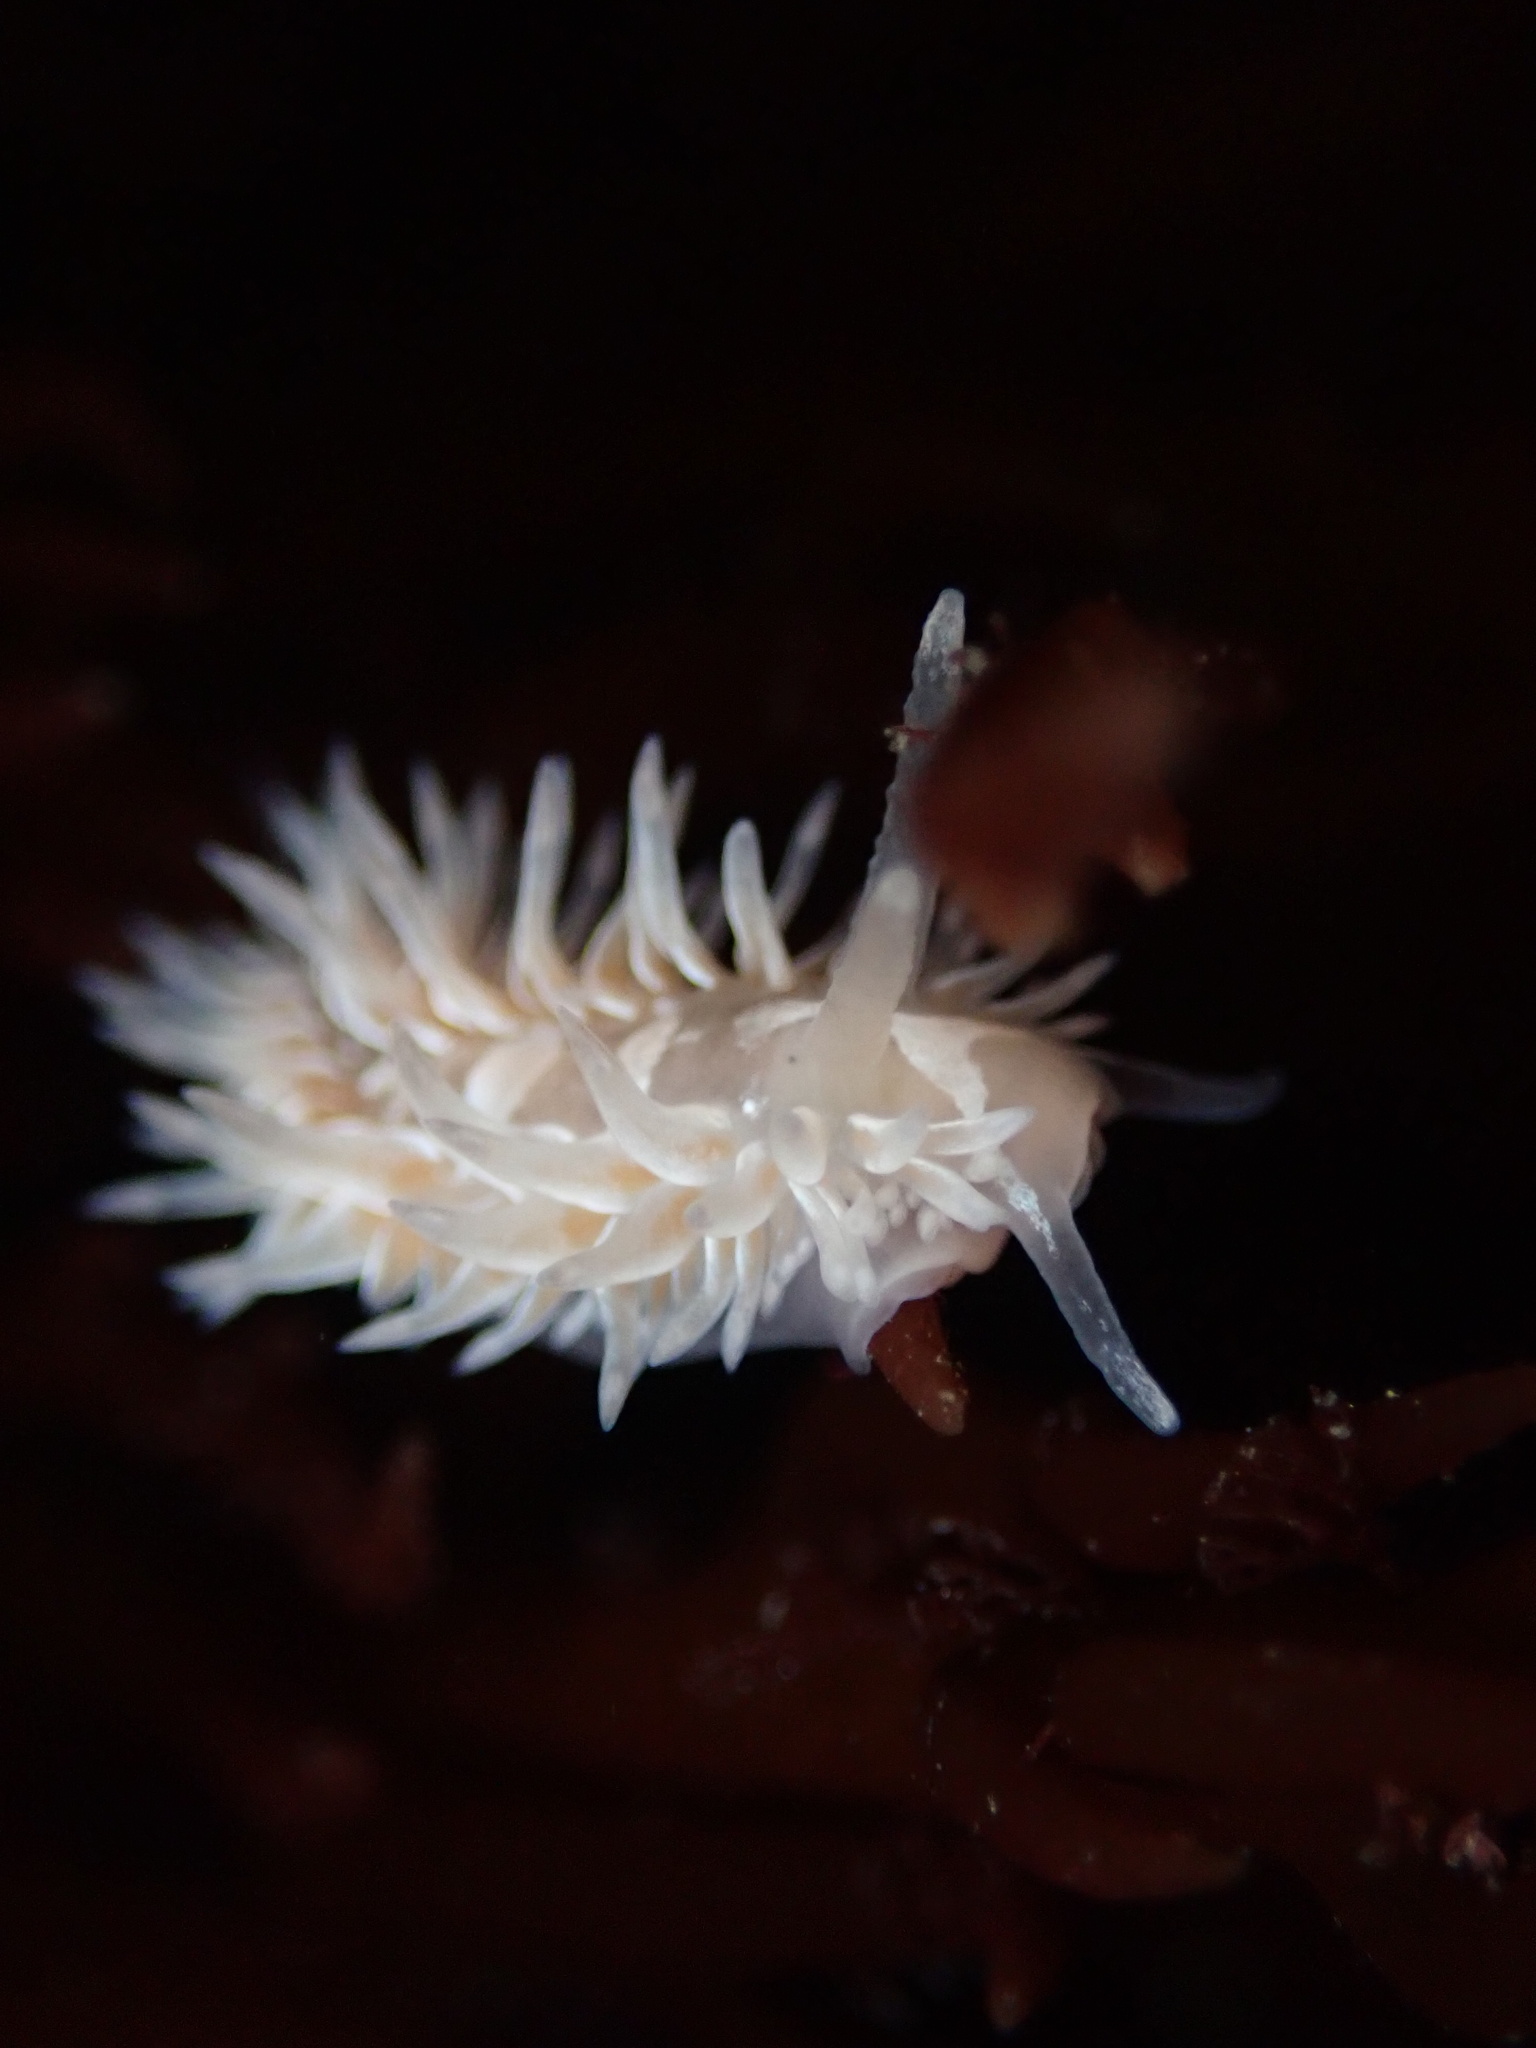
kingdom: Animalia
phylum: Mollusca
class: Gastropoda
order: Nudibranchia
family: Aeolidiidae
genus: Aeolidia
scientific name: Aeolidia loui
